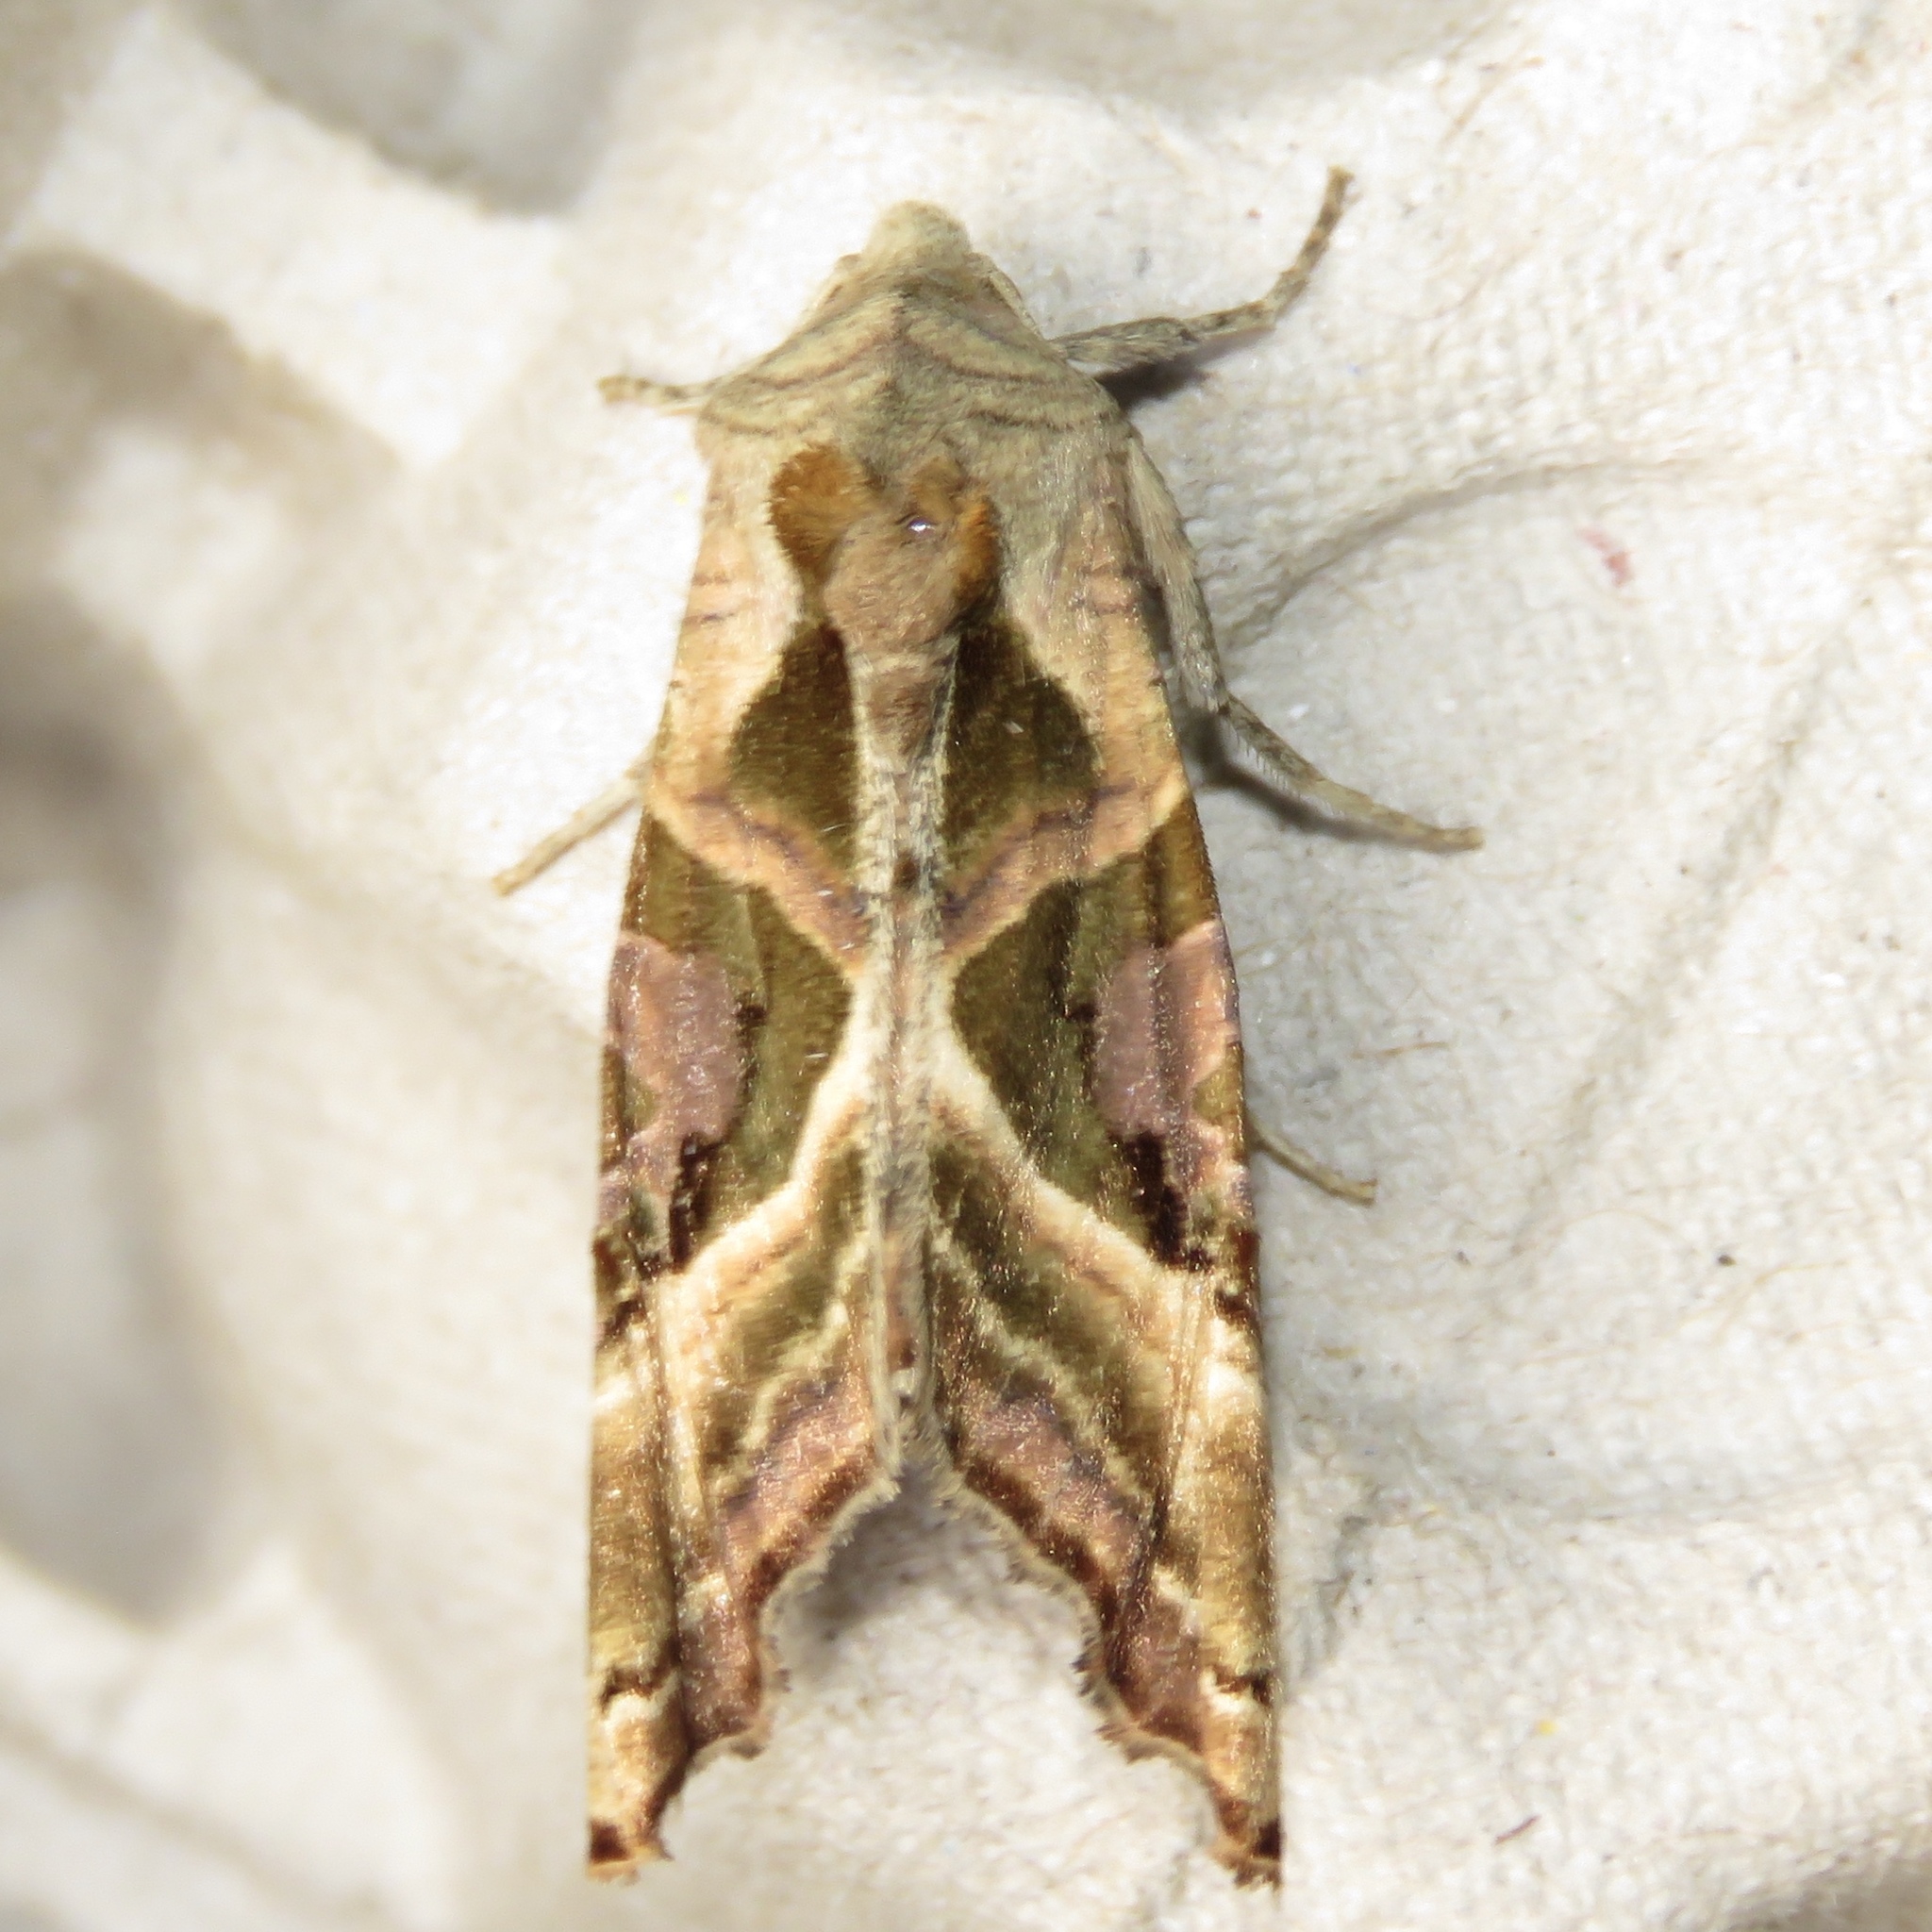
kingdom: Animalia
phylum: Arthropoda
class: Insecta
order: Lepidoptera
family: Noctuidae
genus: Phlogophora
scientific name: Phlogophora iris
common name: Olive angle shades
